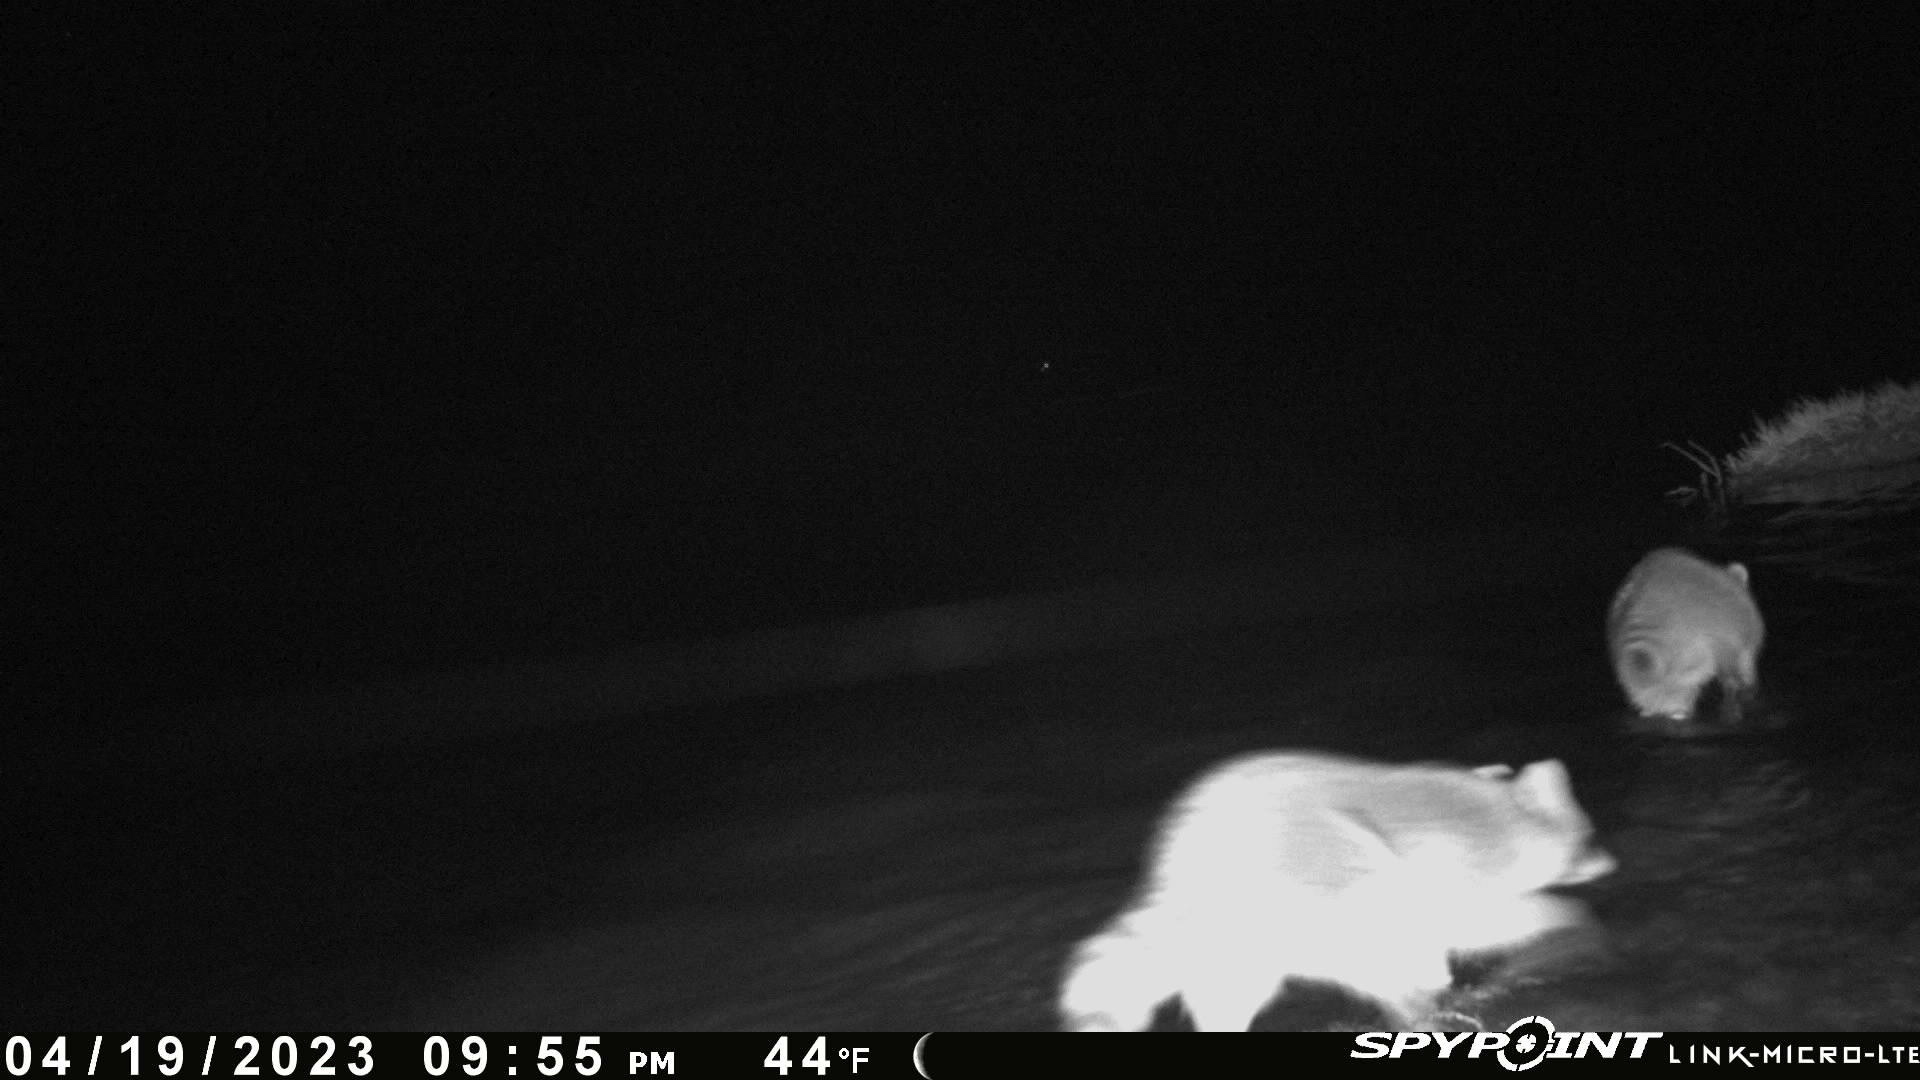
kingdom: Animalia
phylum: Chordata
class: Mammalia
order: Carnivora
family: Procyonidae
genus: Procyon
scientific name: Procyon lotor
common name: Raccoon
